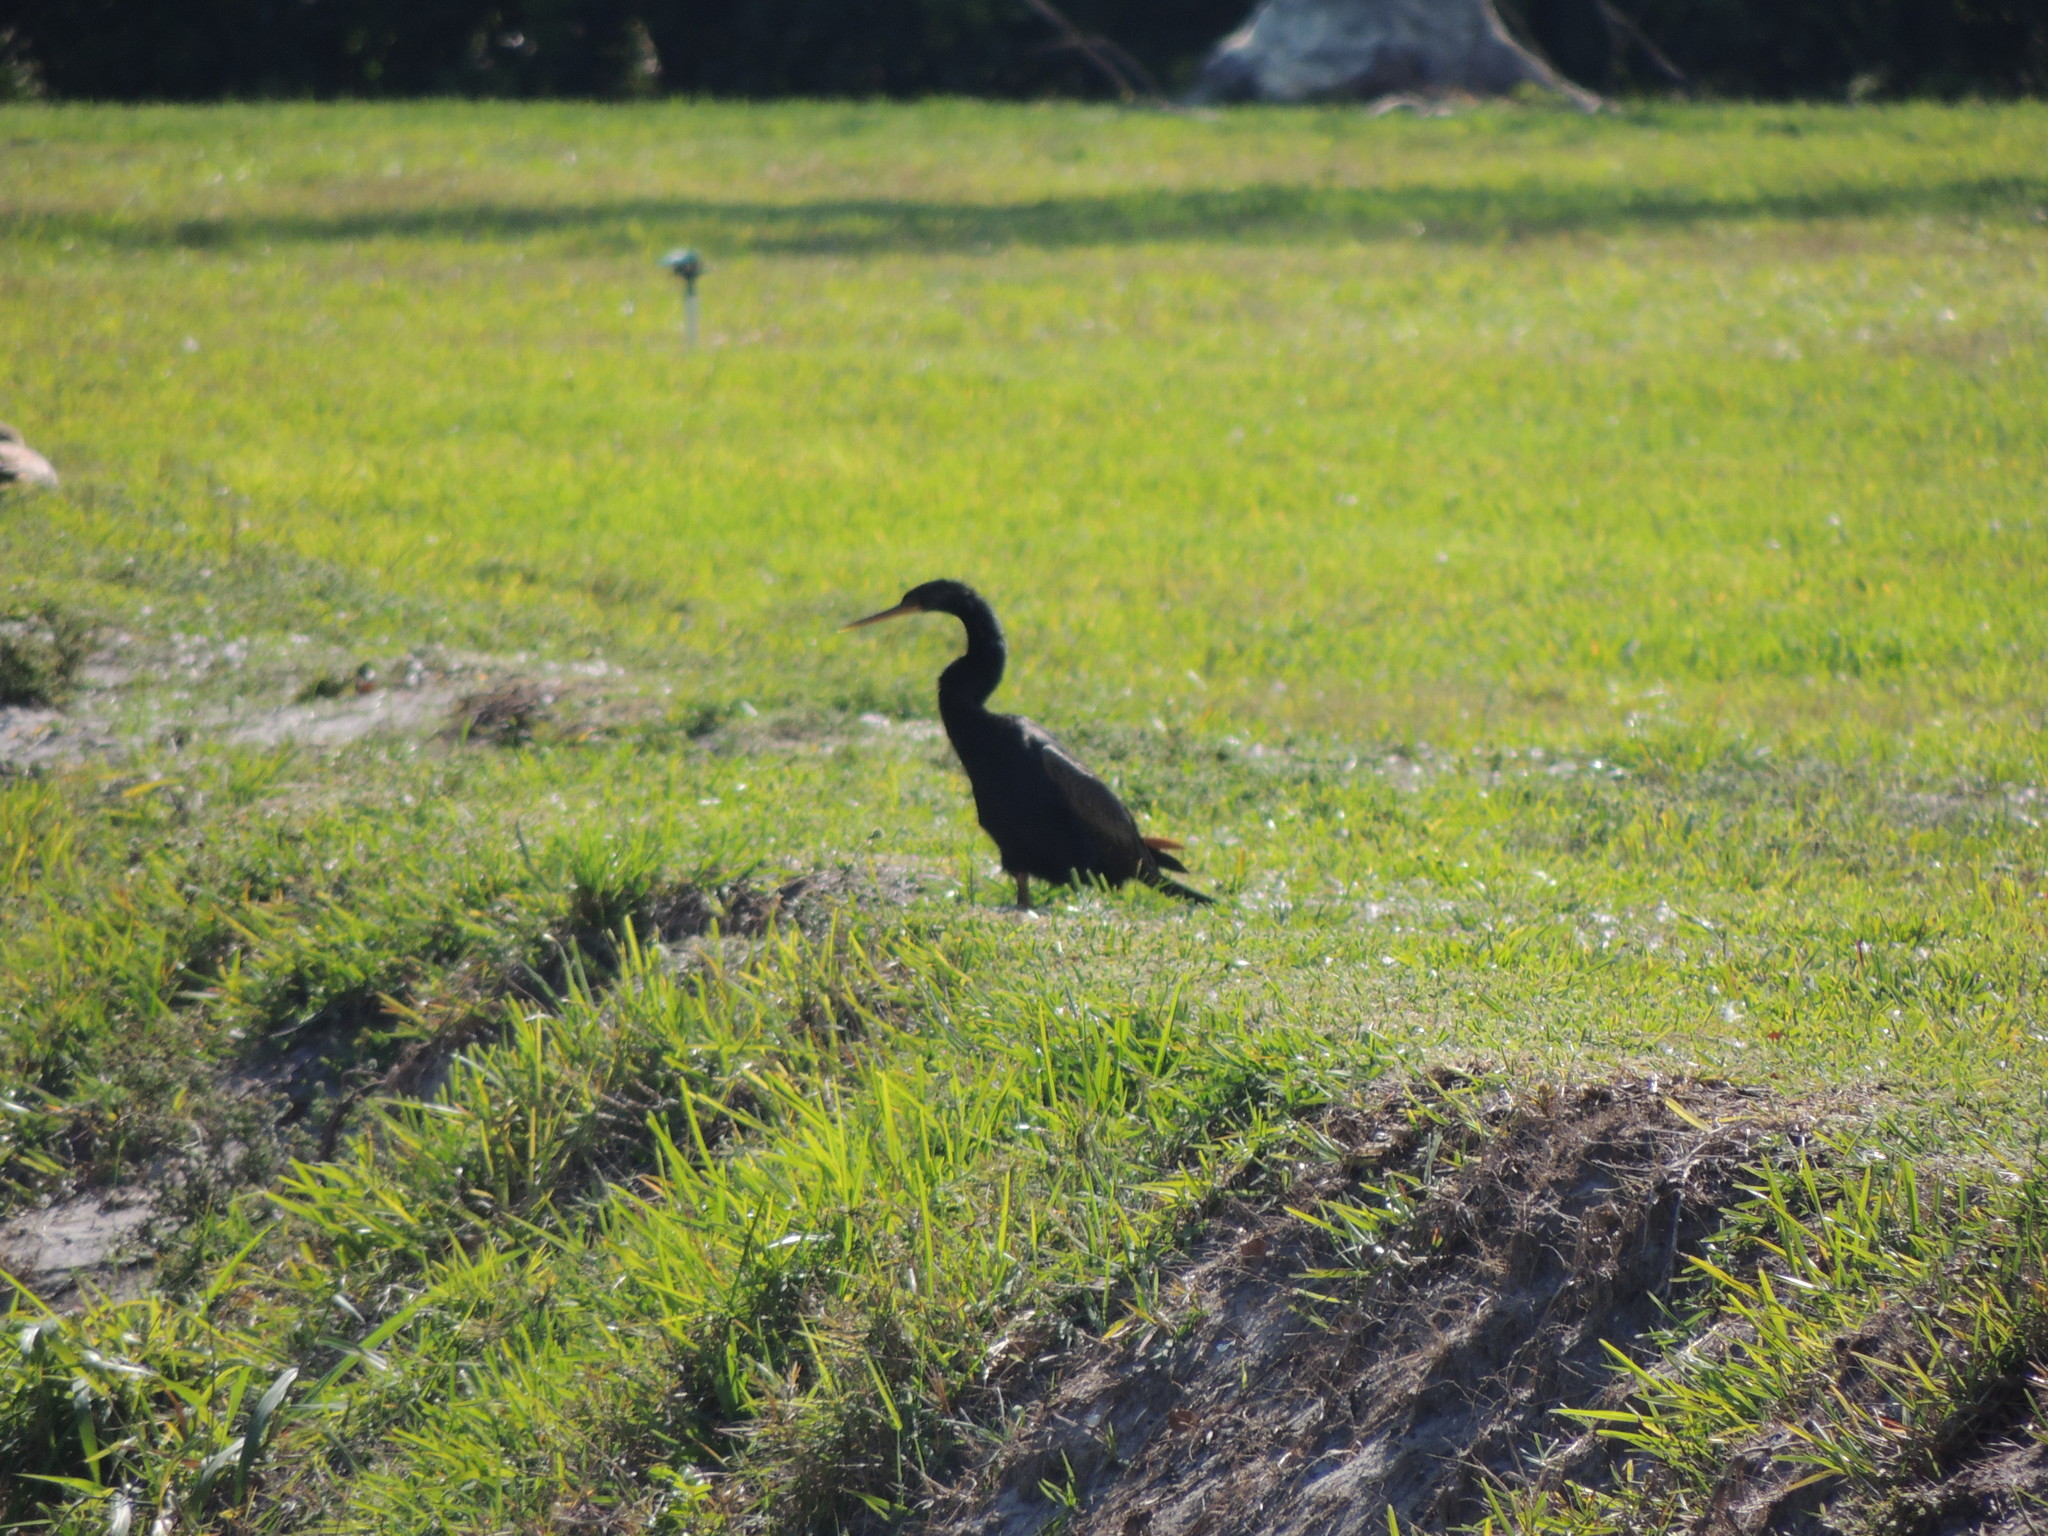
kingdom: Animalia
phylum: Chordata
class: Aves
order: Suliformes
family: Anhingidae
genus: Anhinga
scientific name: Anhinga anhinga
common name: Anhinga
